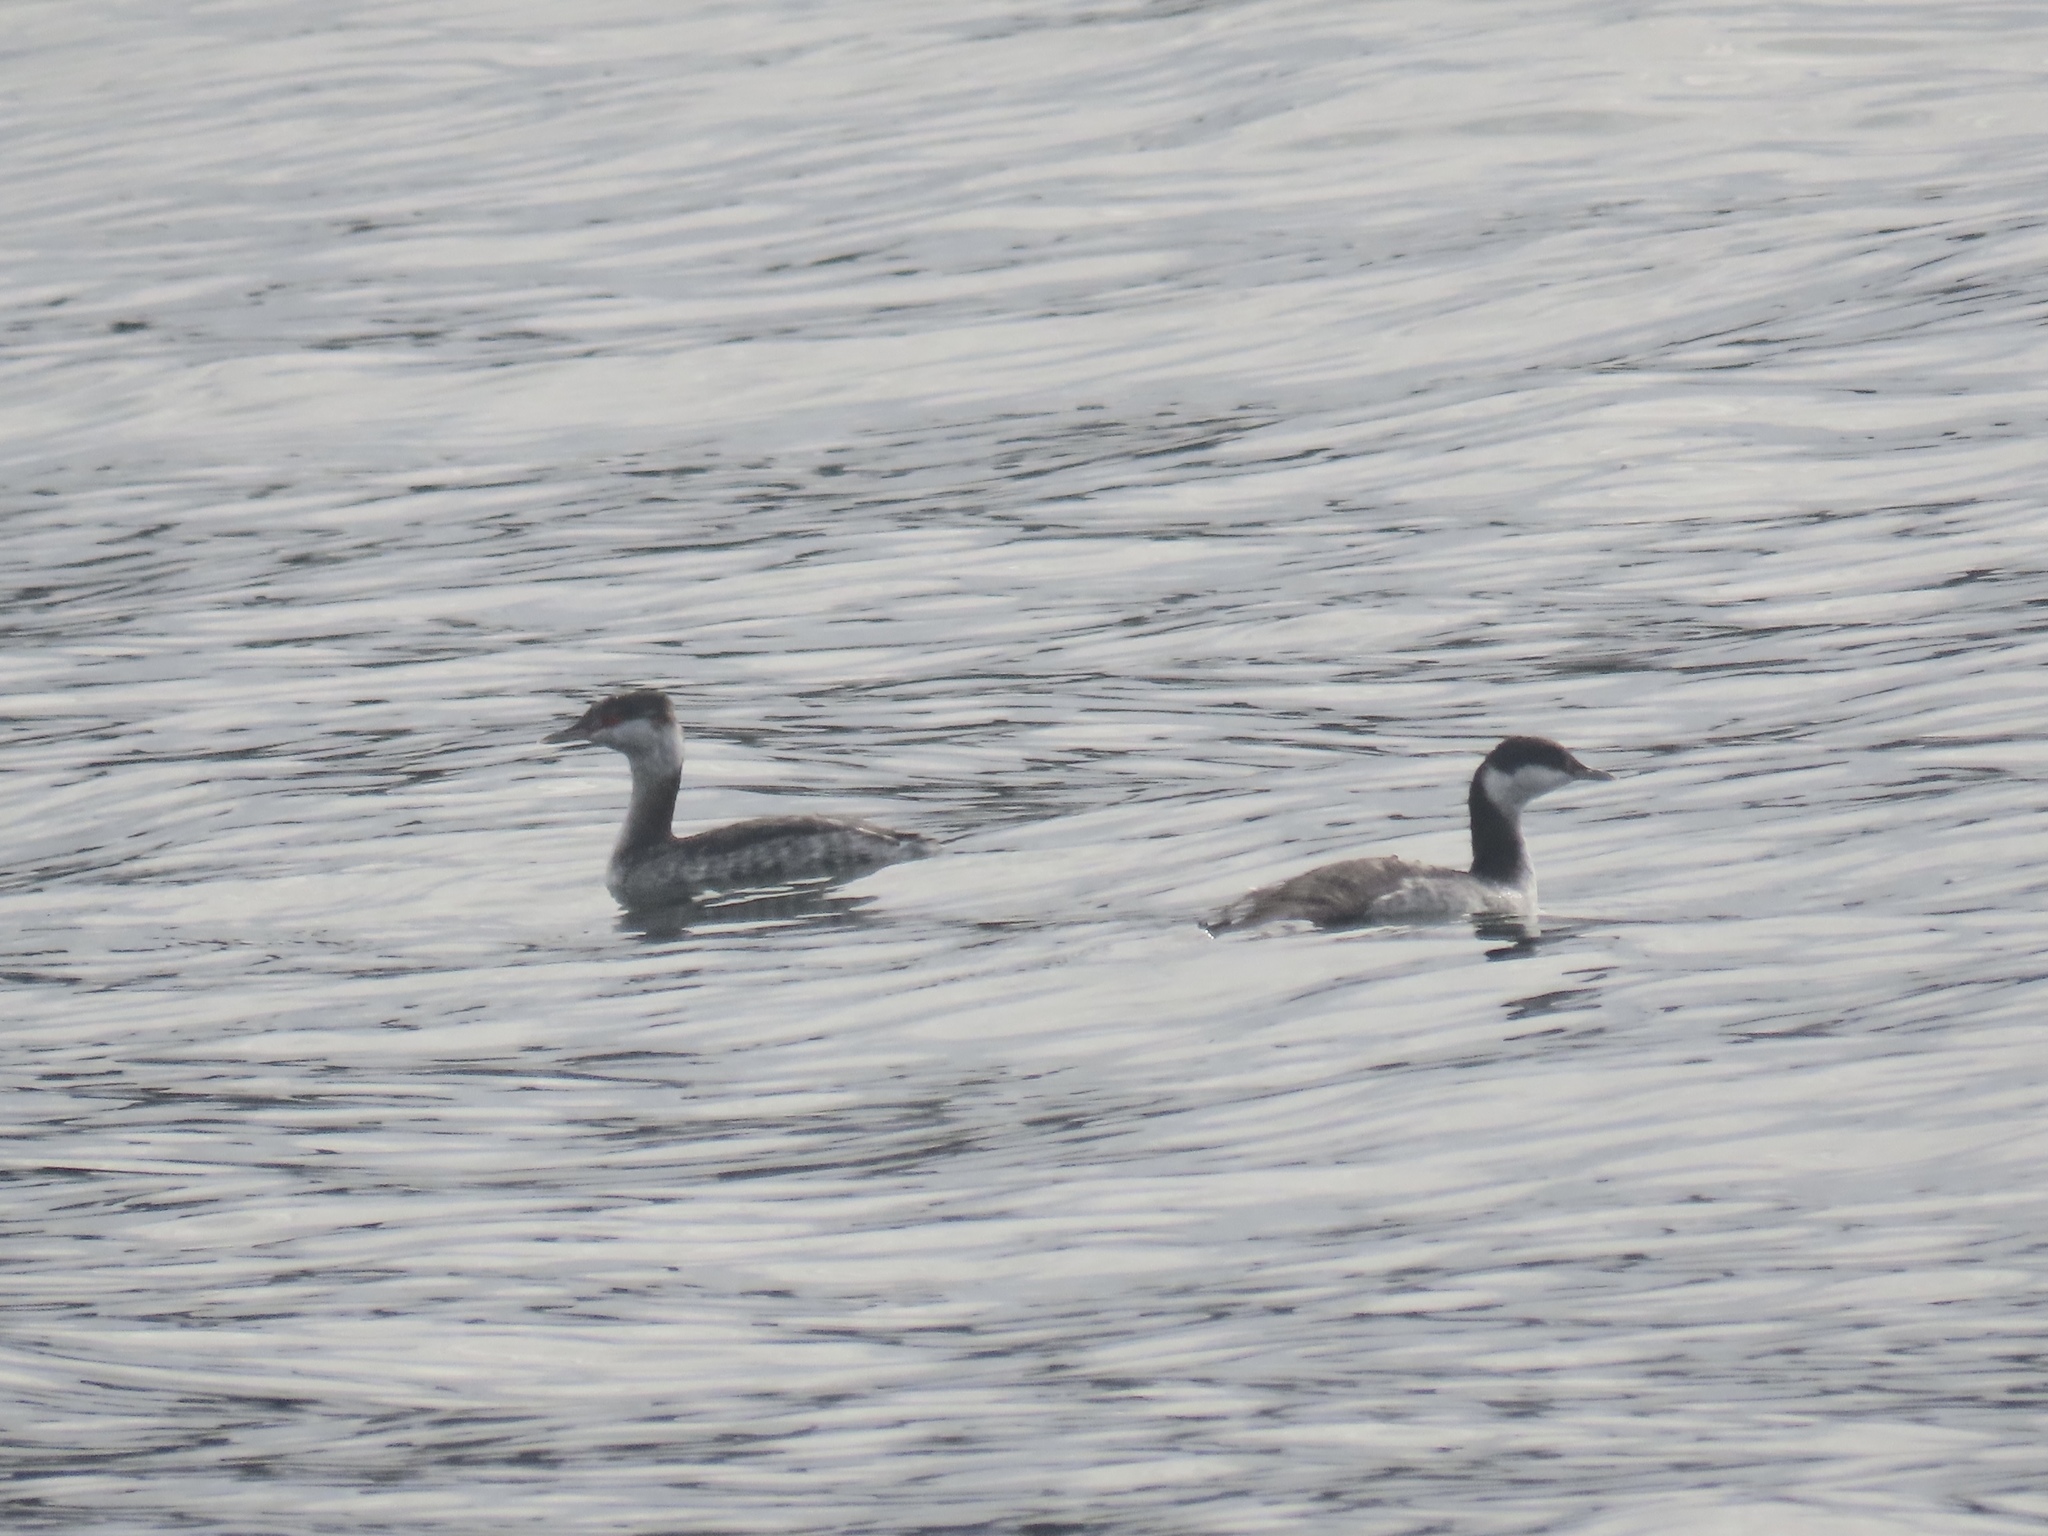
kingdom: Animalia
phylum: Chordata
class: Aves
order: Podicipediformes
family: Podicipedidae
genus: Podiceps
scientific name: Podiceps auritus
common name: Horned grebe
